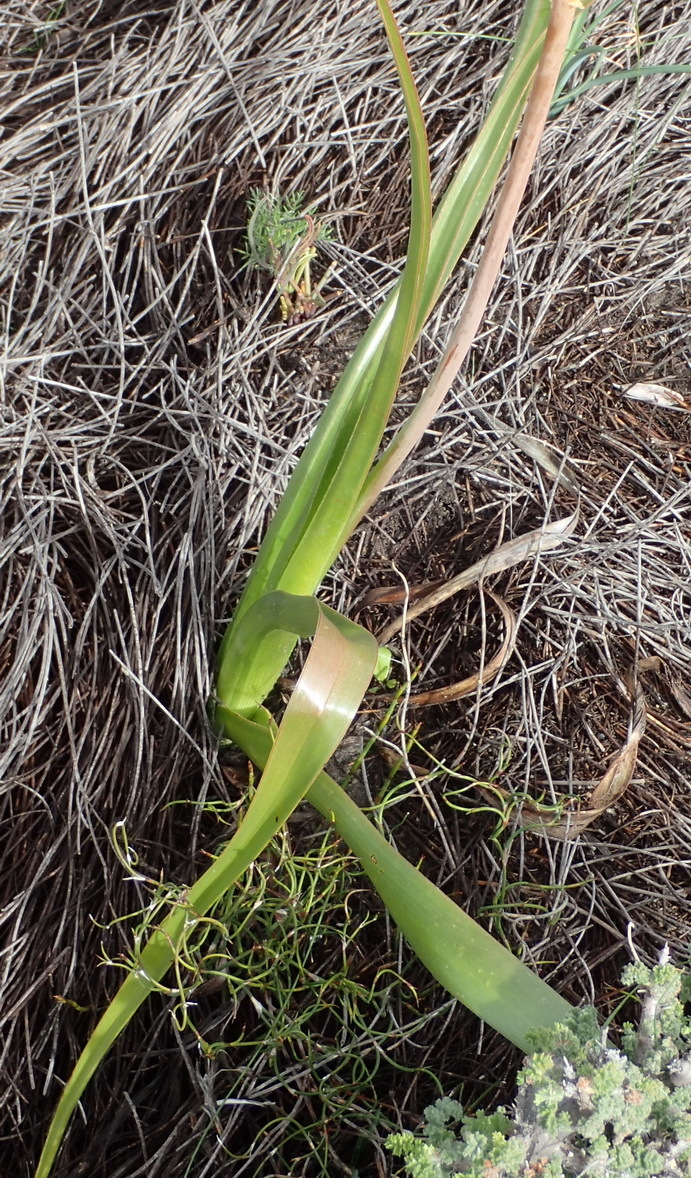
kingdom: Plantae
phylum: Tracheophyta
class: Liliopsida
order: Asparagales
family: Asphodelaceae
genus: Bulbinella
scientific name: Bulbinella latifolia
